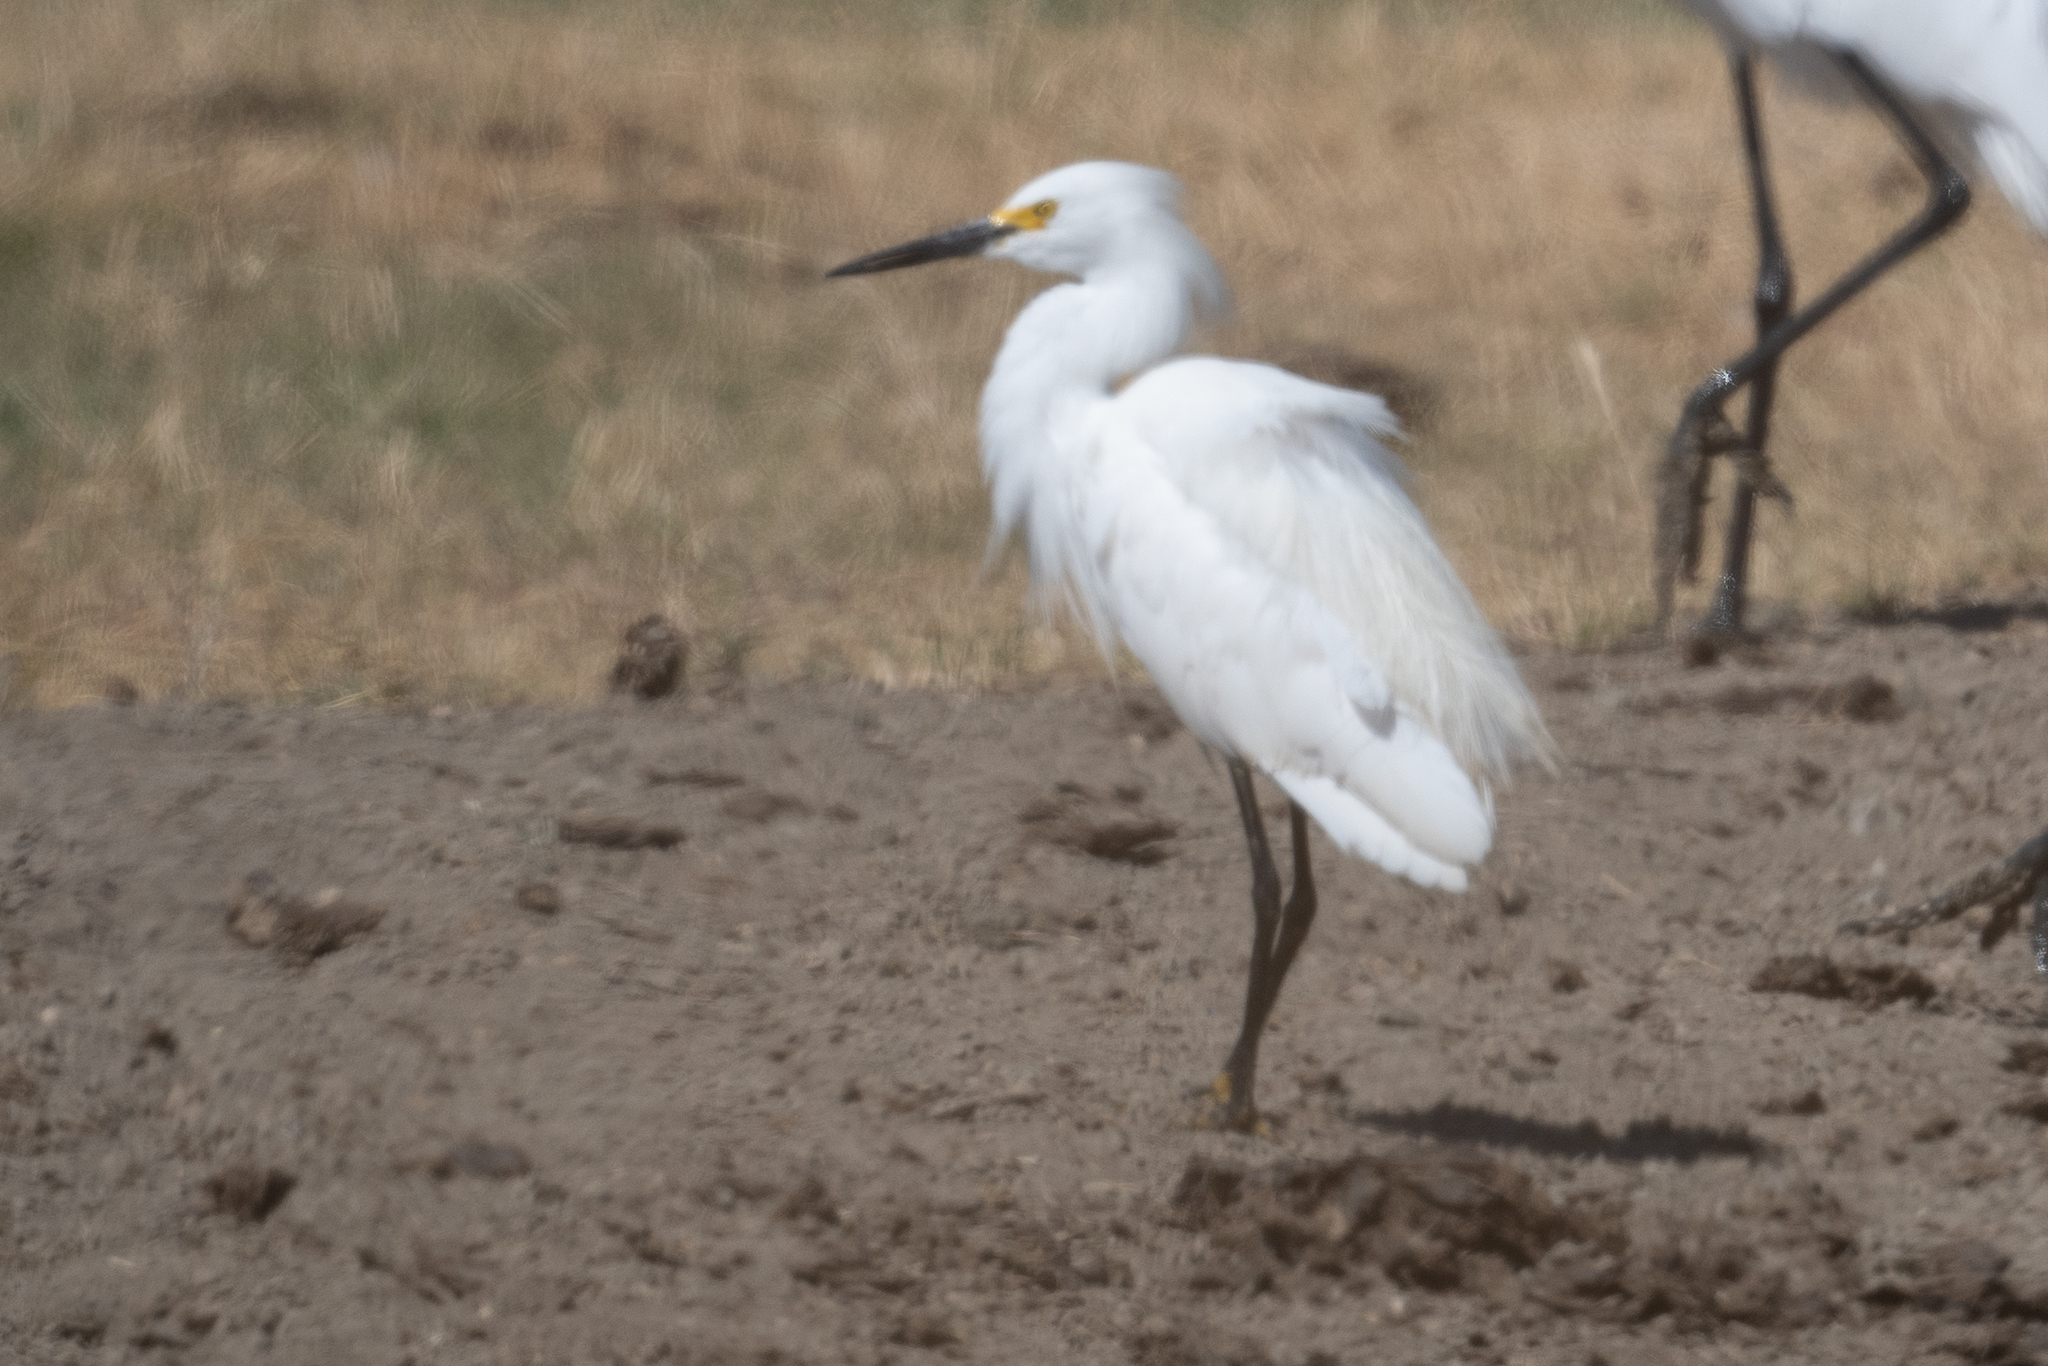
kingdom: Animalia
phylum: Chordata
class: Aves
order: Pelecaniformes
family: Ardeidae
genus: Egretta
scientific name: Egretta thula
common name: Snowy egret
